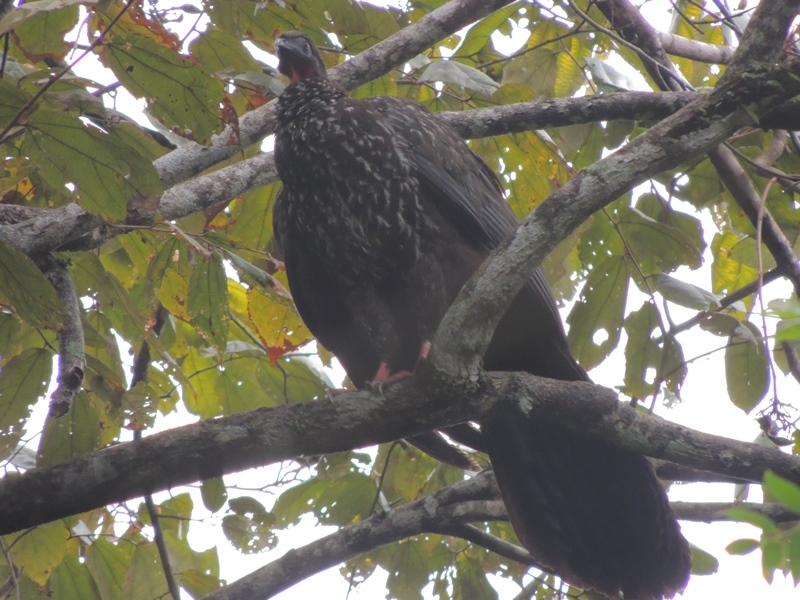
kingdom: Animalia
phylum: Chordata
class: Aves
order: Galliformes
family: Cracidae
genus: Penelope
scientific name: Penelope purpurascens
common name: Crested guan
